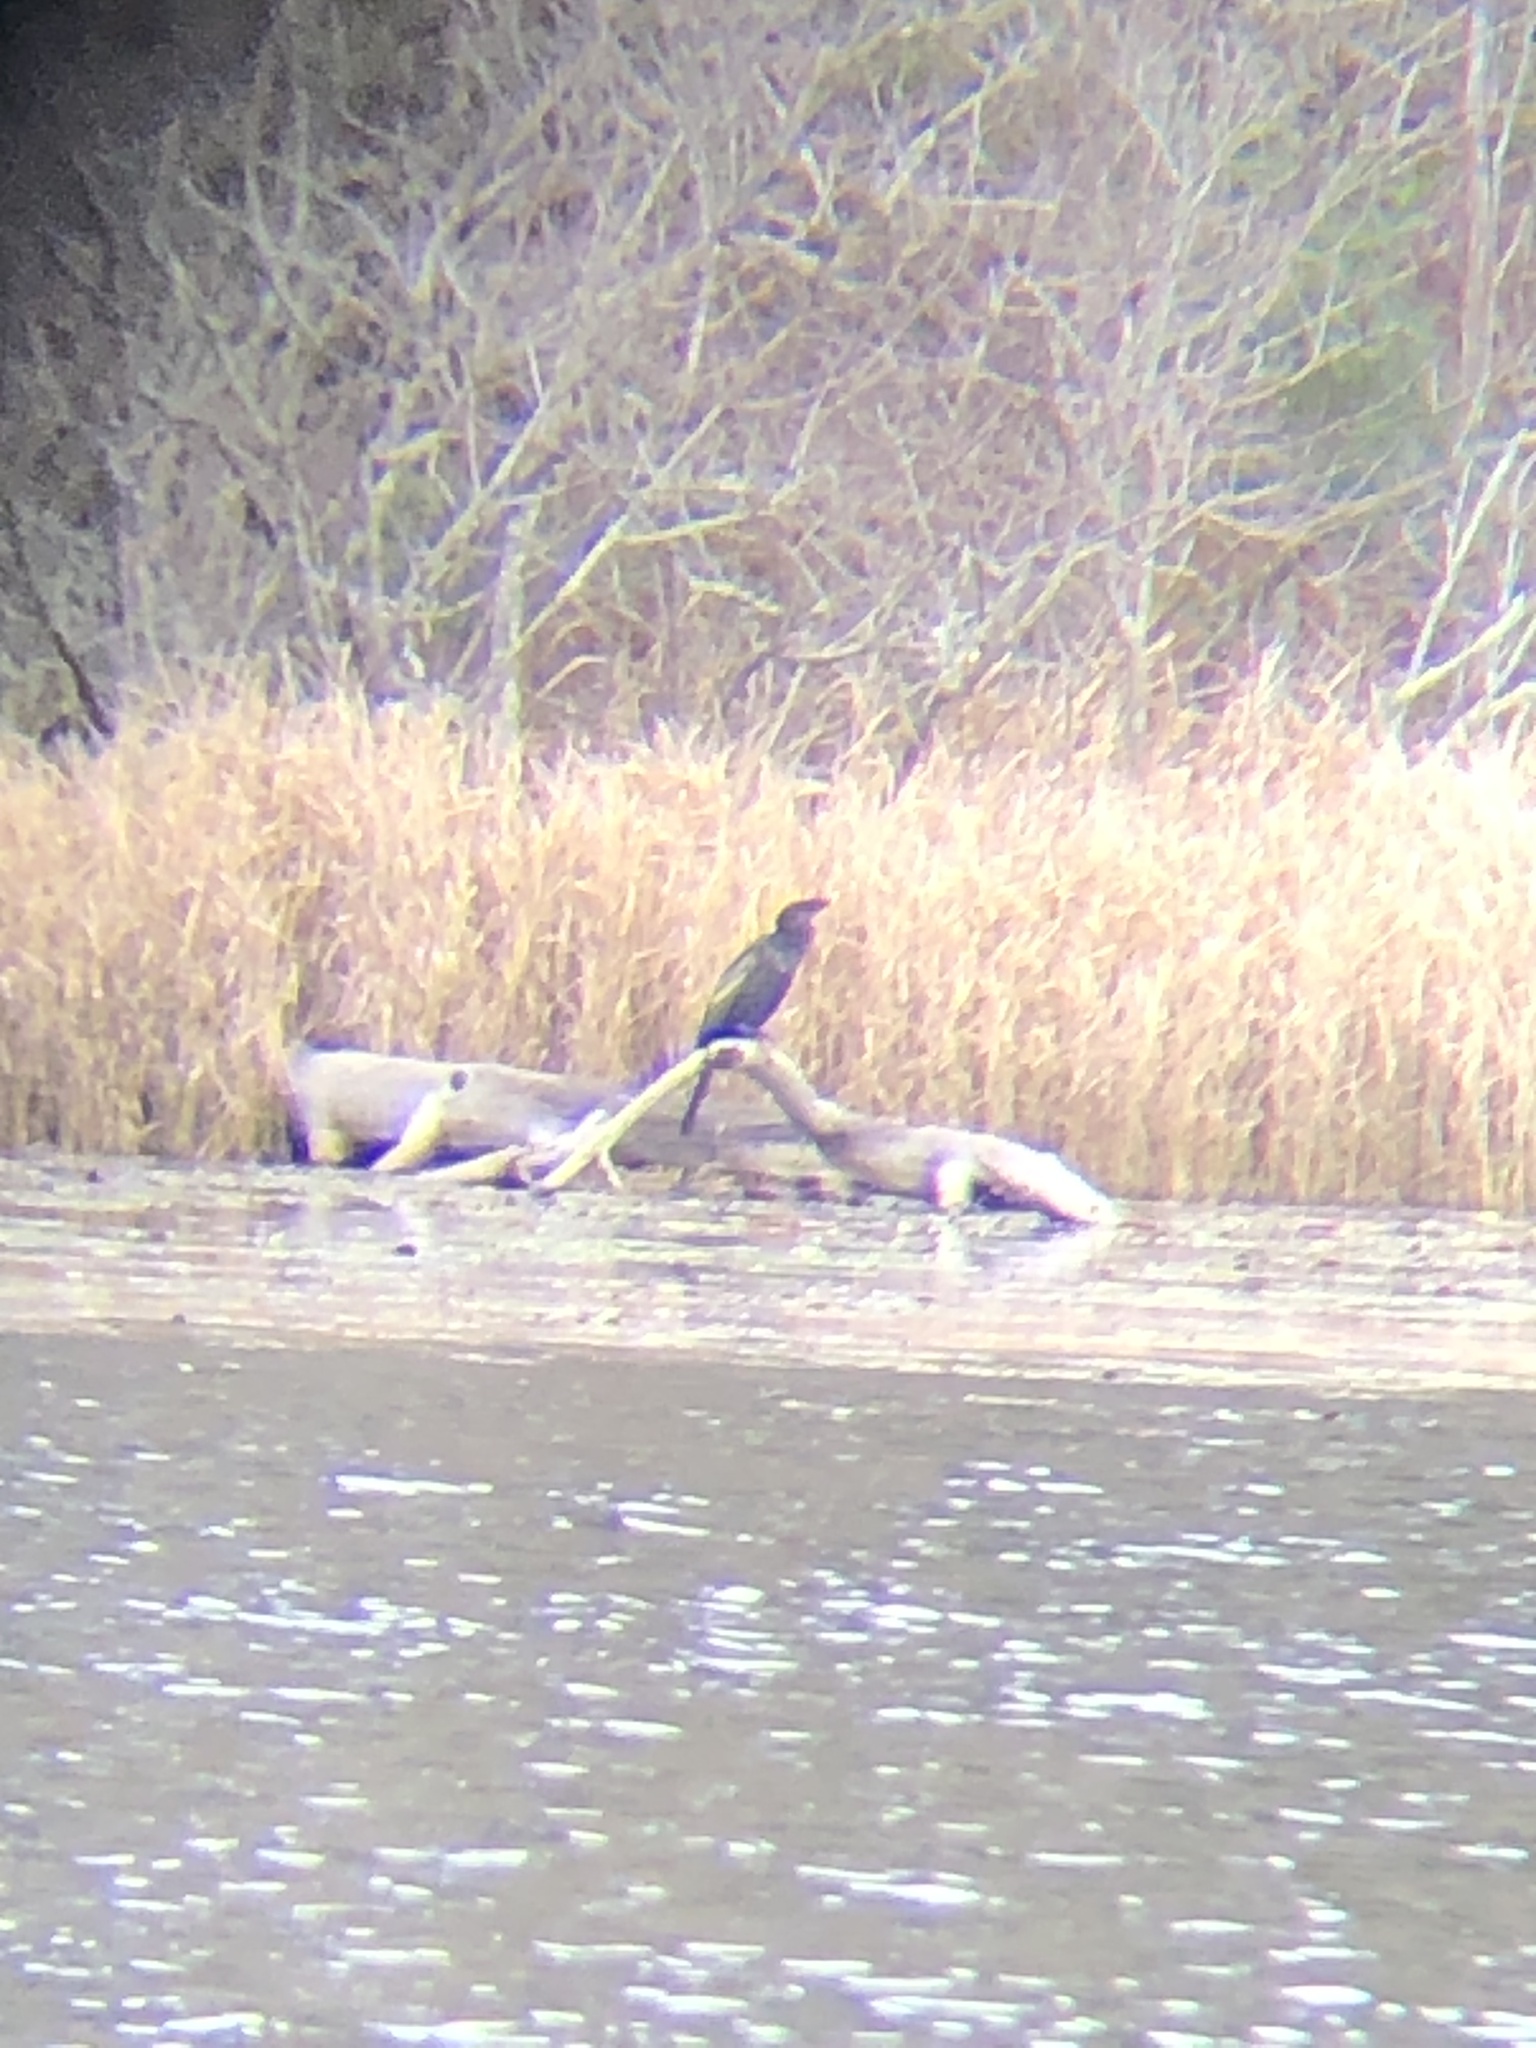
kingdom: Animalia
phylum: Chordata
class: Aves
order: Suliformes
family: Anhingidae
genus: Anhinga
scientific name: Anhinga anhinga
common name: Anhinga
